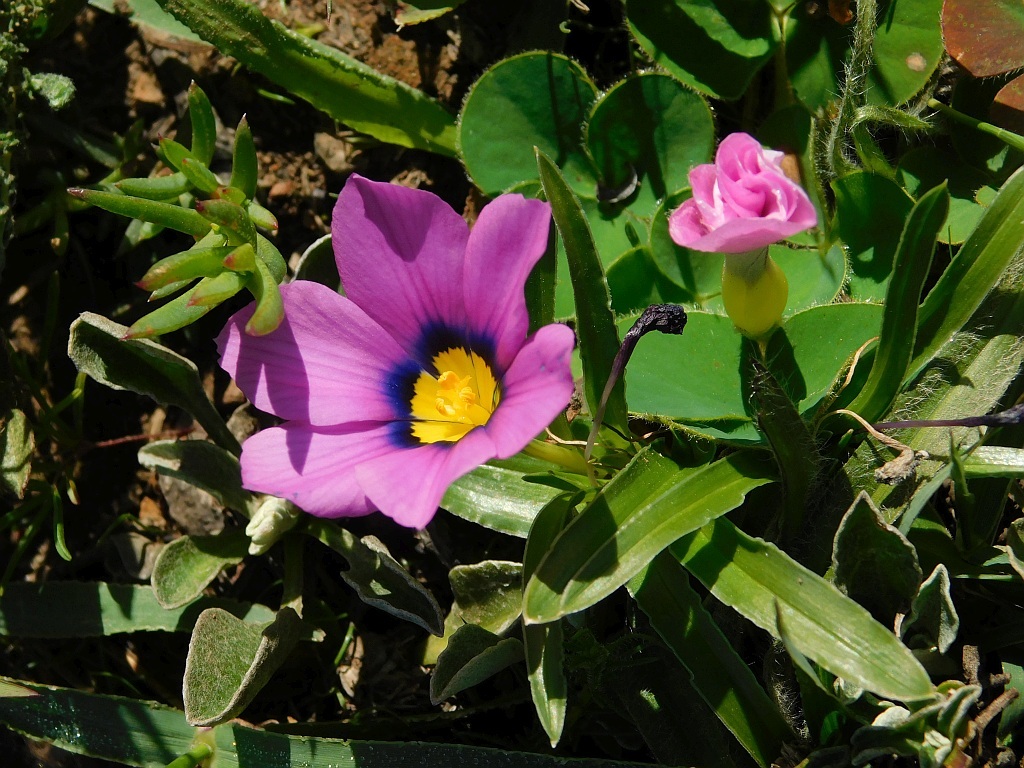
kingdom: Plantae
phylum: Tracheophyta
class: Liliopsida
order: Asparagales
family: Iridaceae
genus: Moraea
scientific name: Moraea barnardiella
